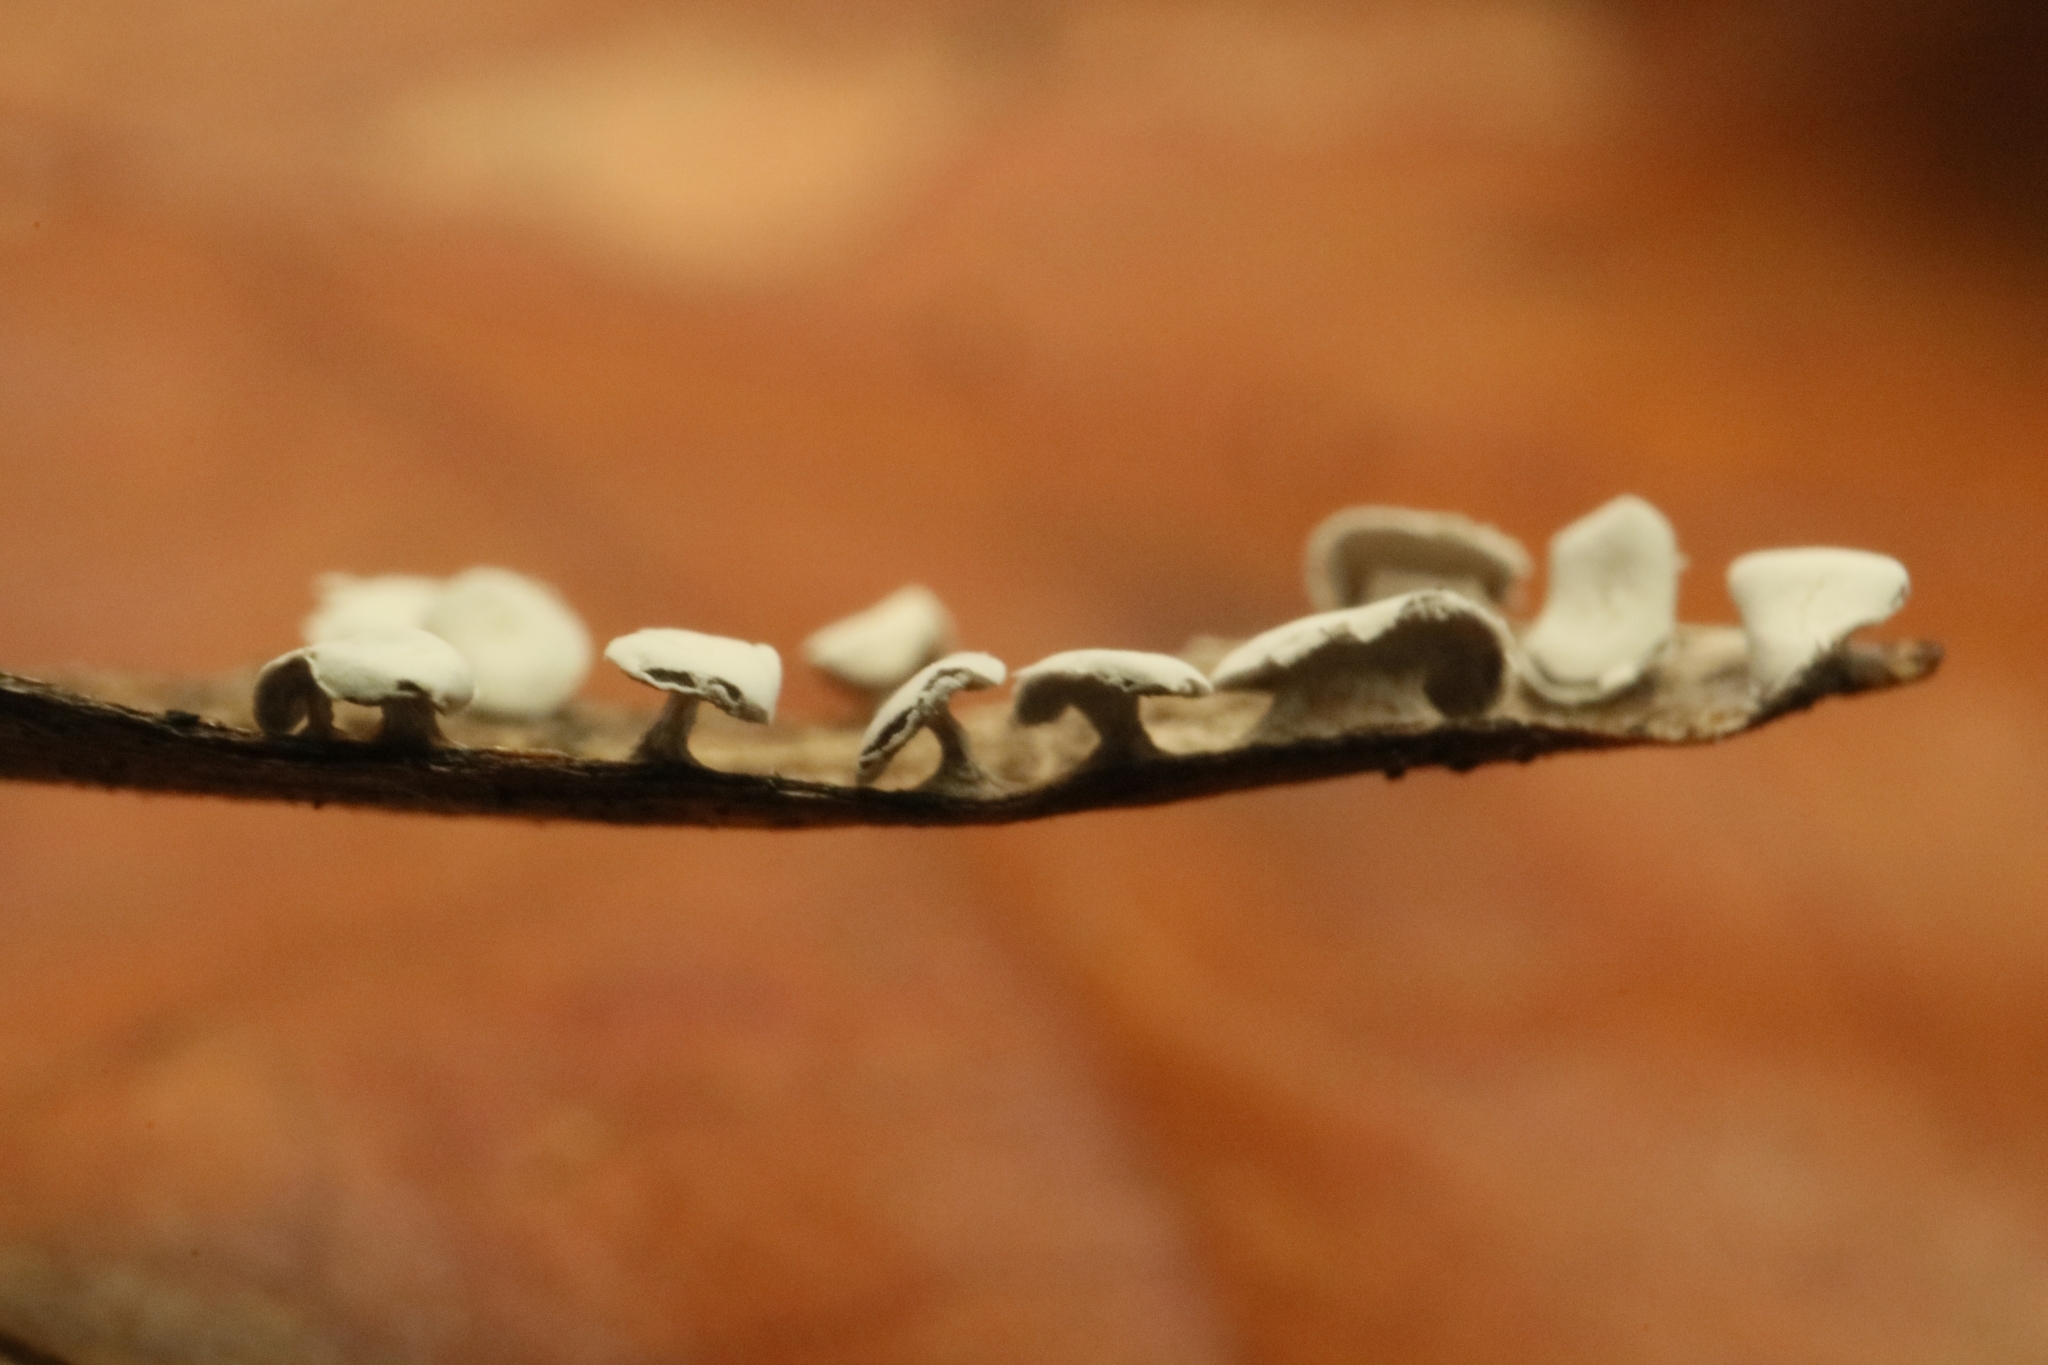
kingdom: Protozoa
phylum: Mycetozoa
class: Myxomycetes
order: Physarales
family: Didymiaceae
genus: Diderma
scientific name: Diderma hemisphaericum
